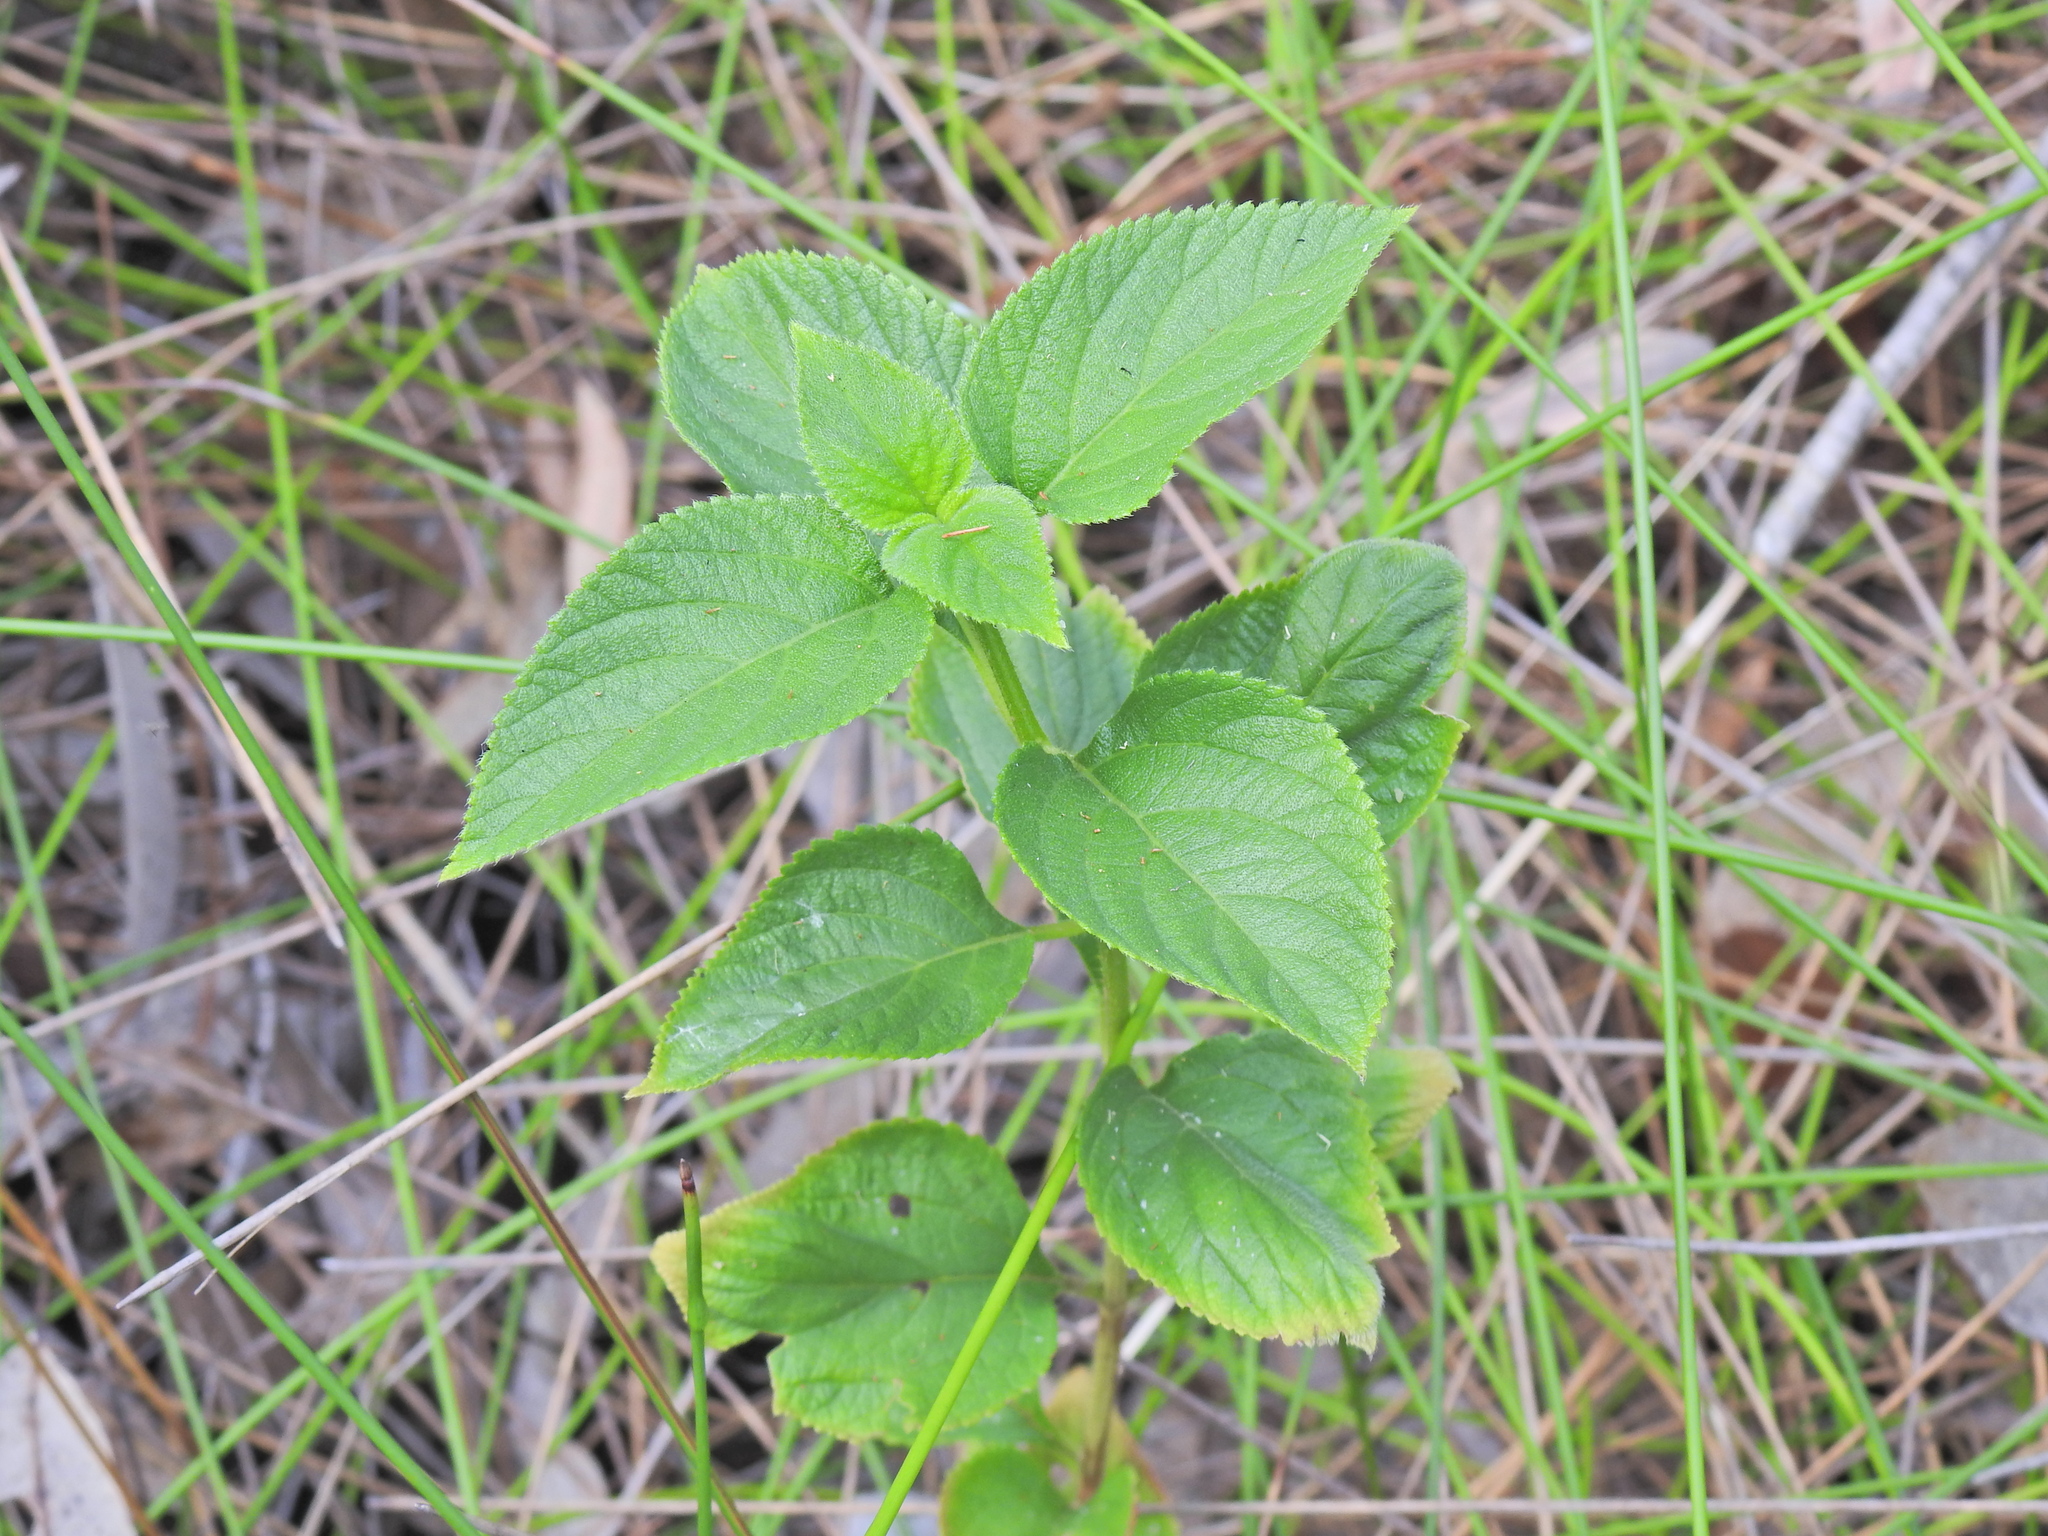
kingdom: Plantae
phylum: Tracheophyta
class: Magnoliopsida
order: Lamiales
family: Verbenaceae
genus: Lantana
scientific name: Lantana camara
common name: Lantana
